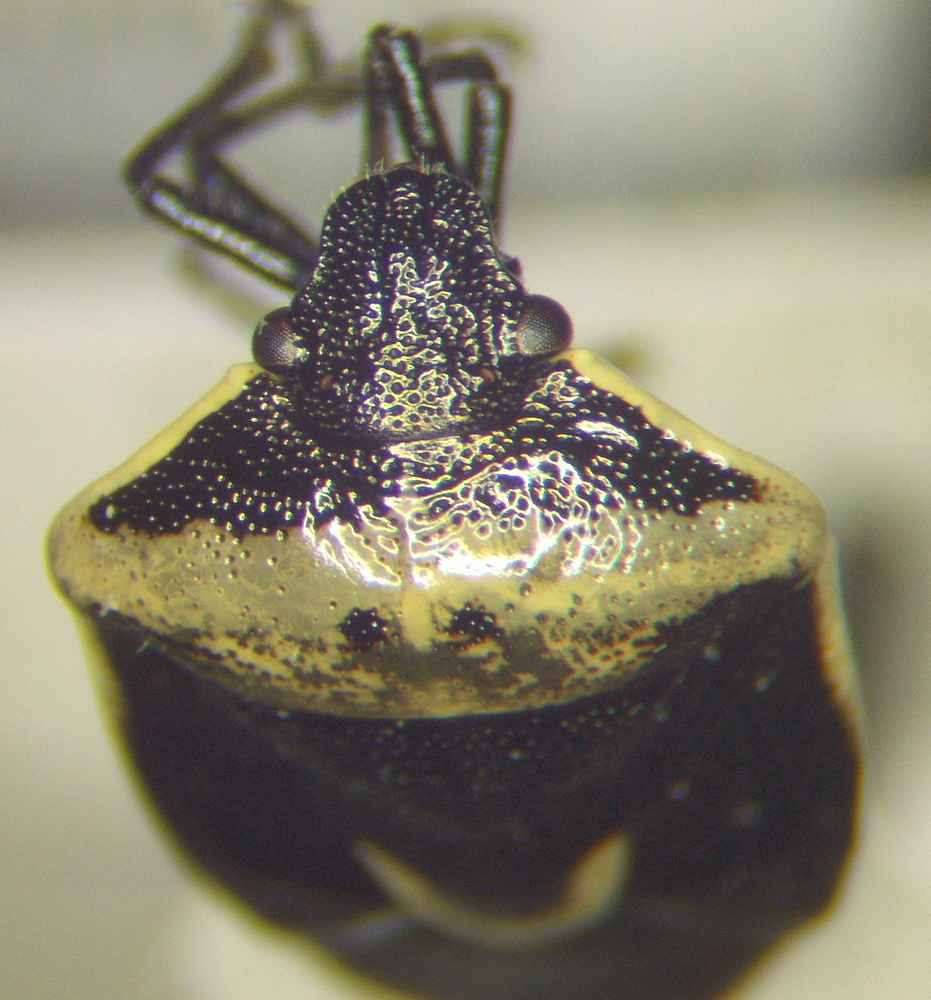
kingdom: Animalia
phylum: Arthropoda
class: Insecta
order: Hemiptera
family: Pentatomidae
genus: Cosmopepla
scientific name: Cosmopepla binotata
